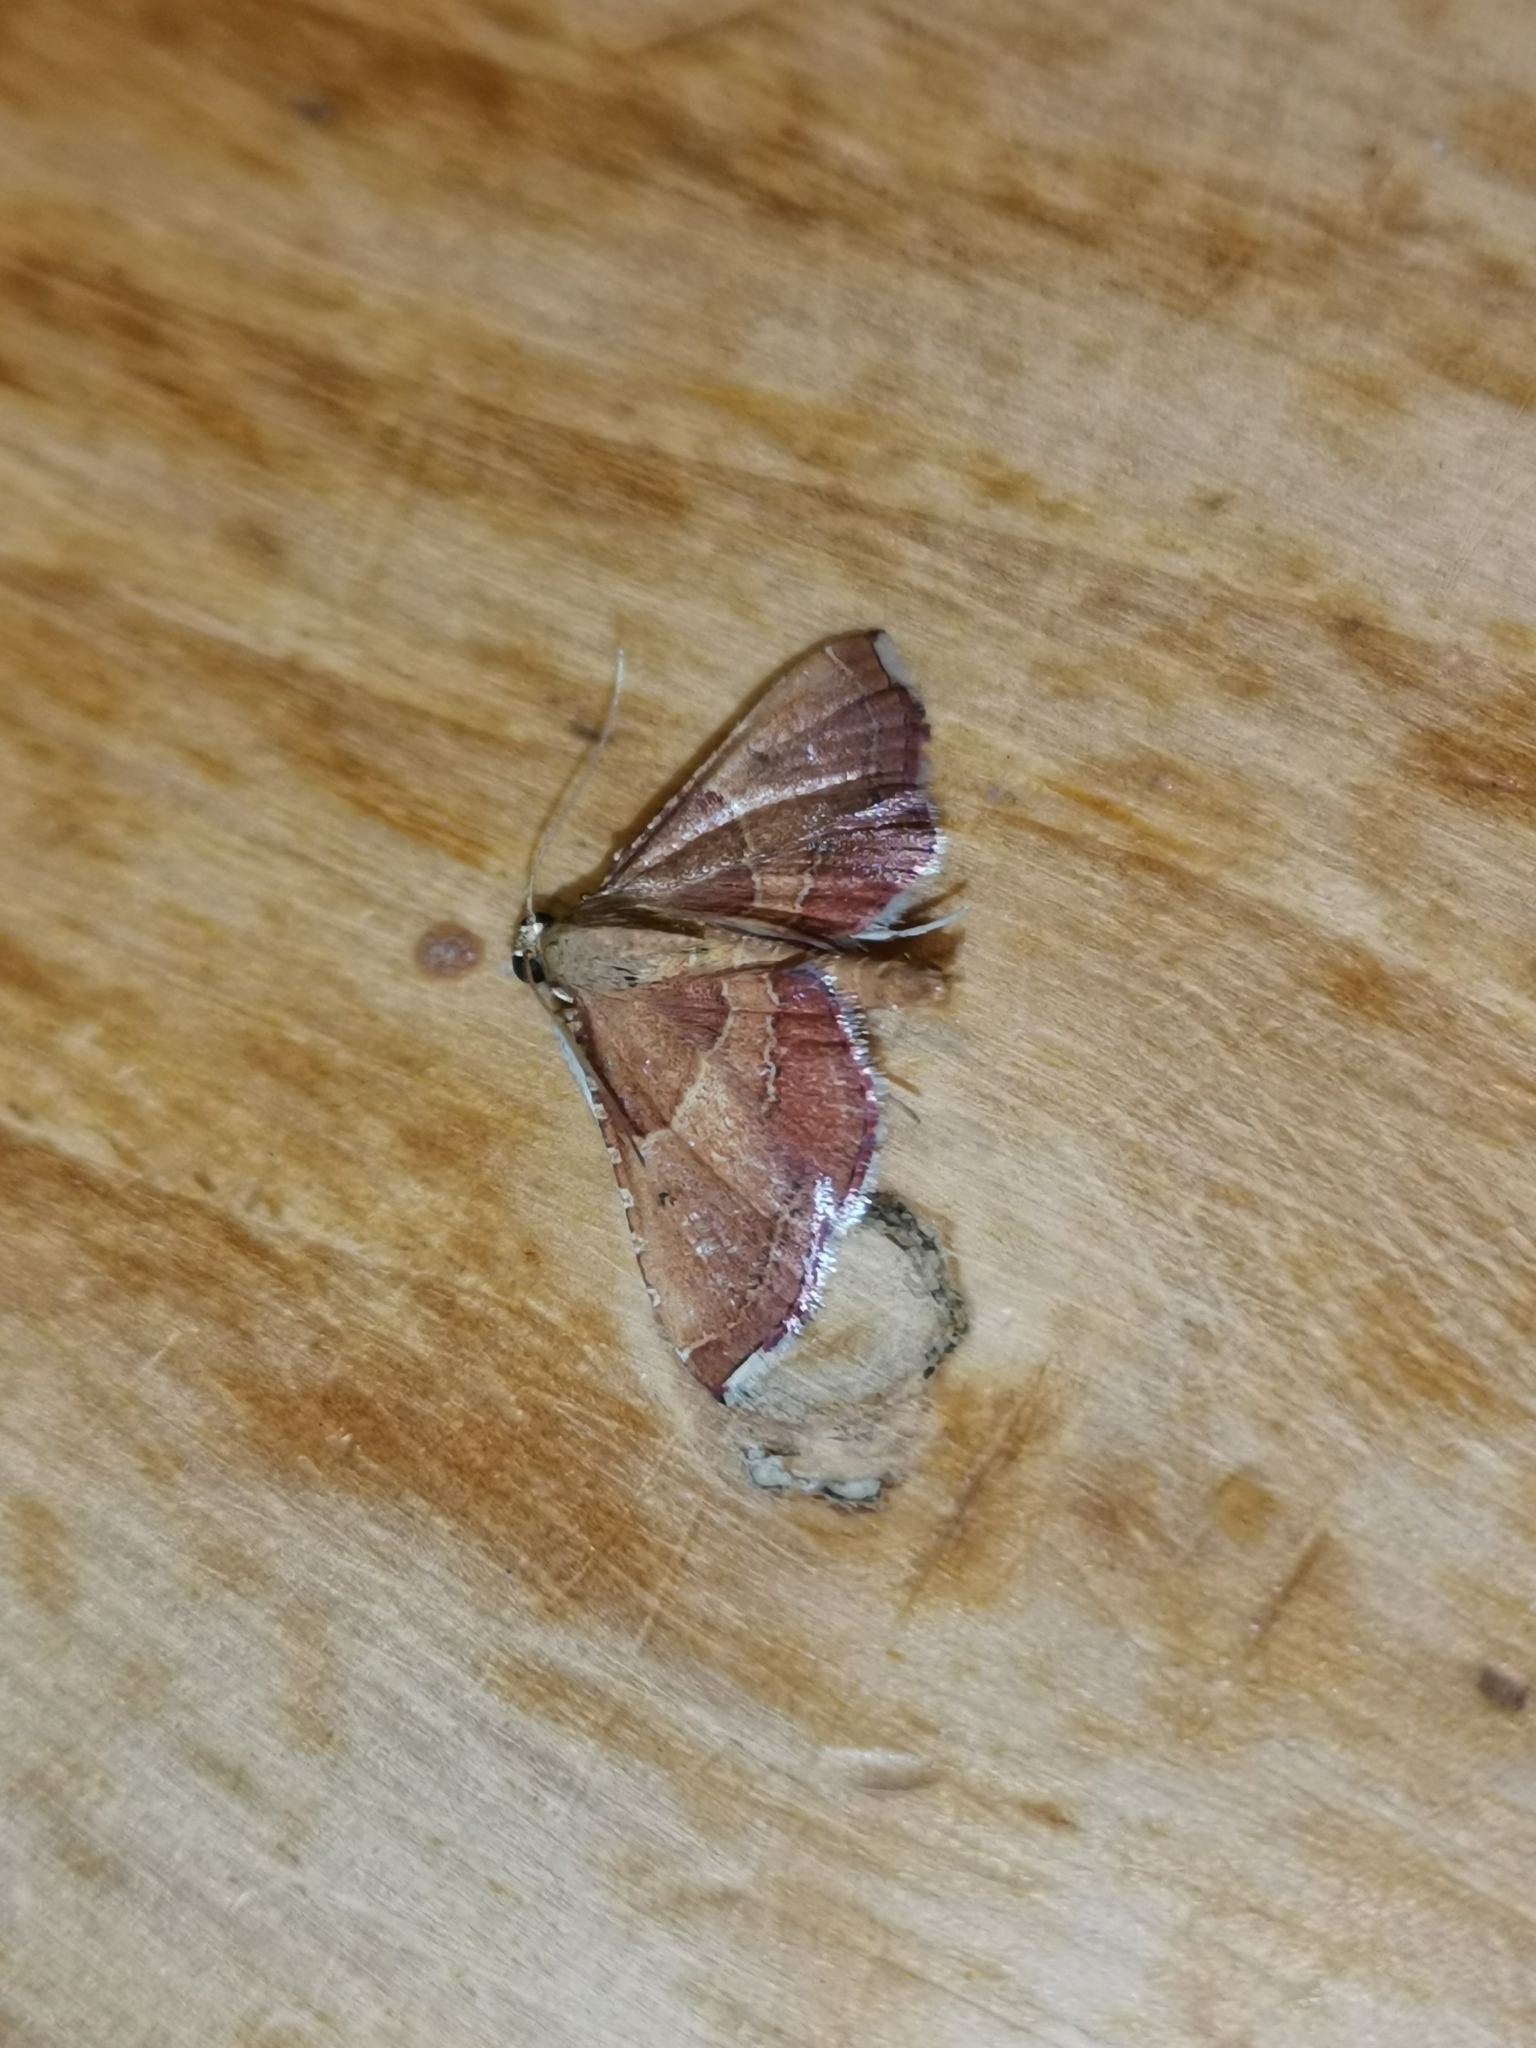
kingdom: Animalia
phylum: Arthropoda
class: Insecta
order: Lepidoptera
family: Pyralidae
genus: Endotricha
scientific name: Endotricha flammealis
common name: Rosy tabby
